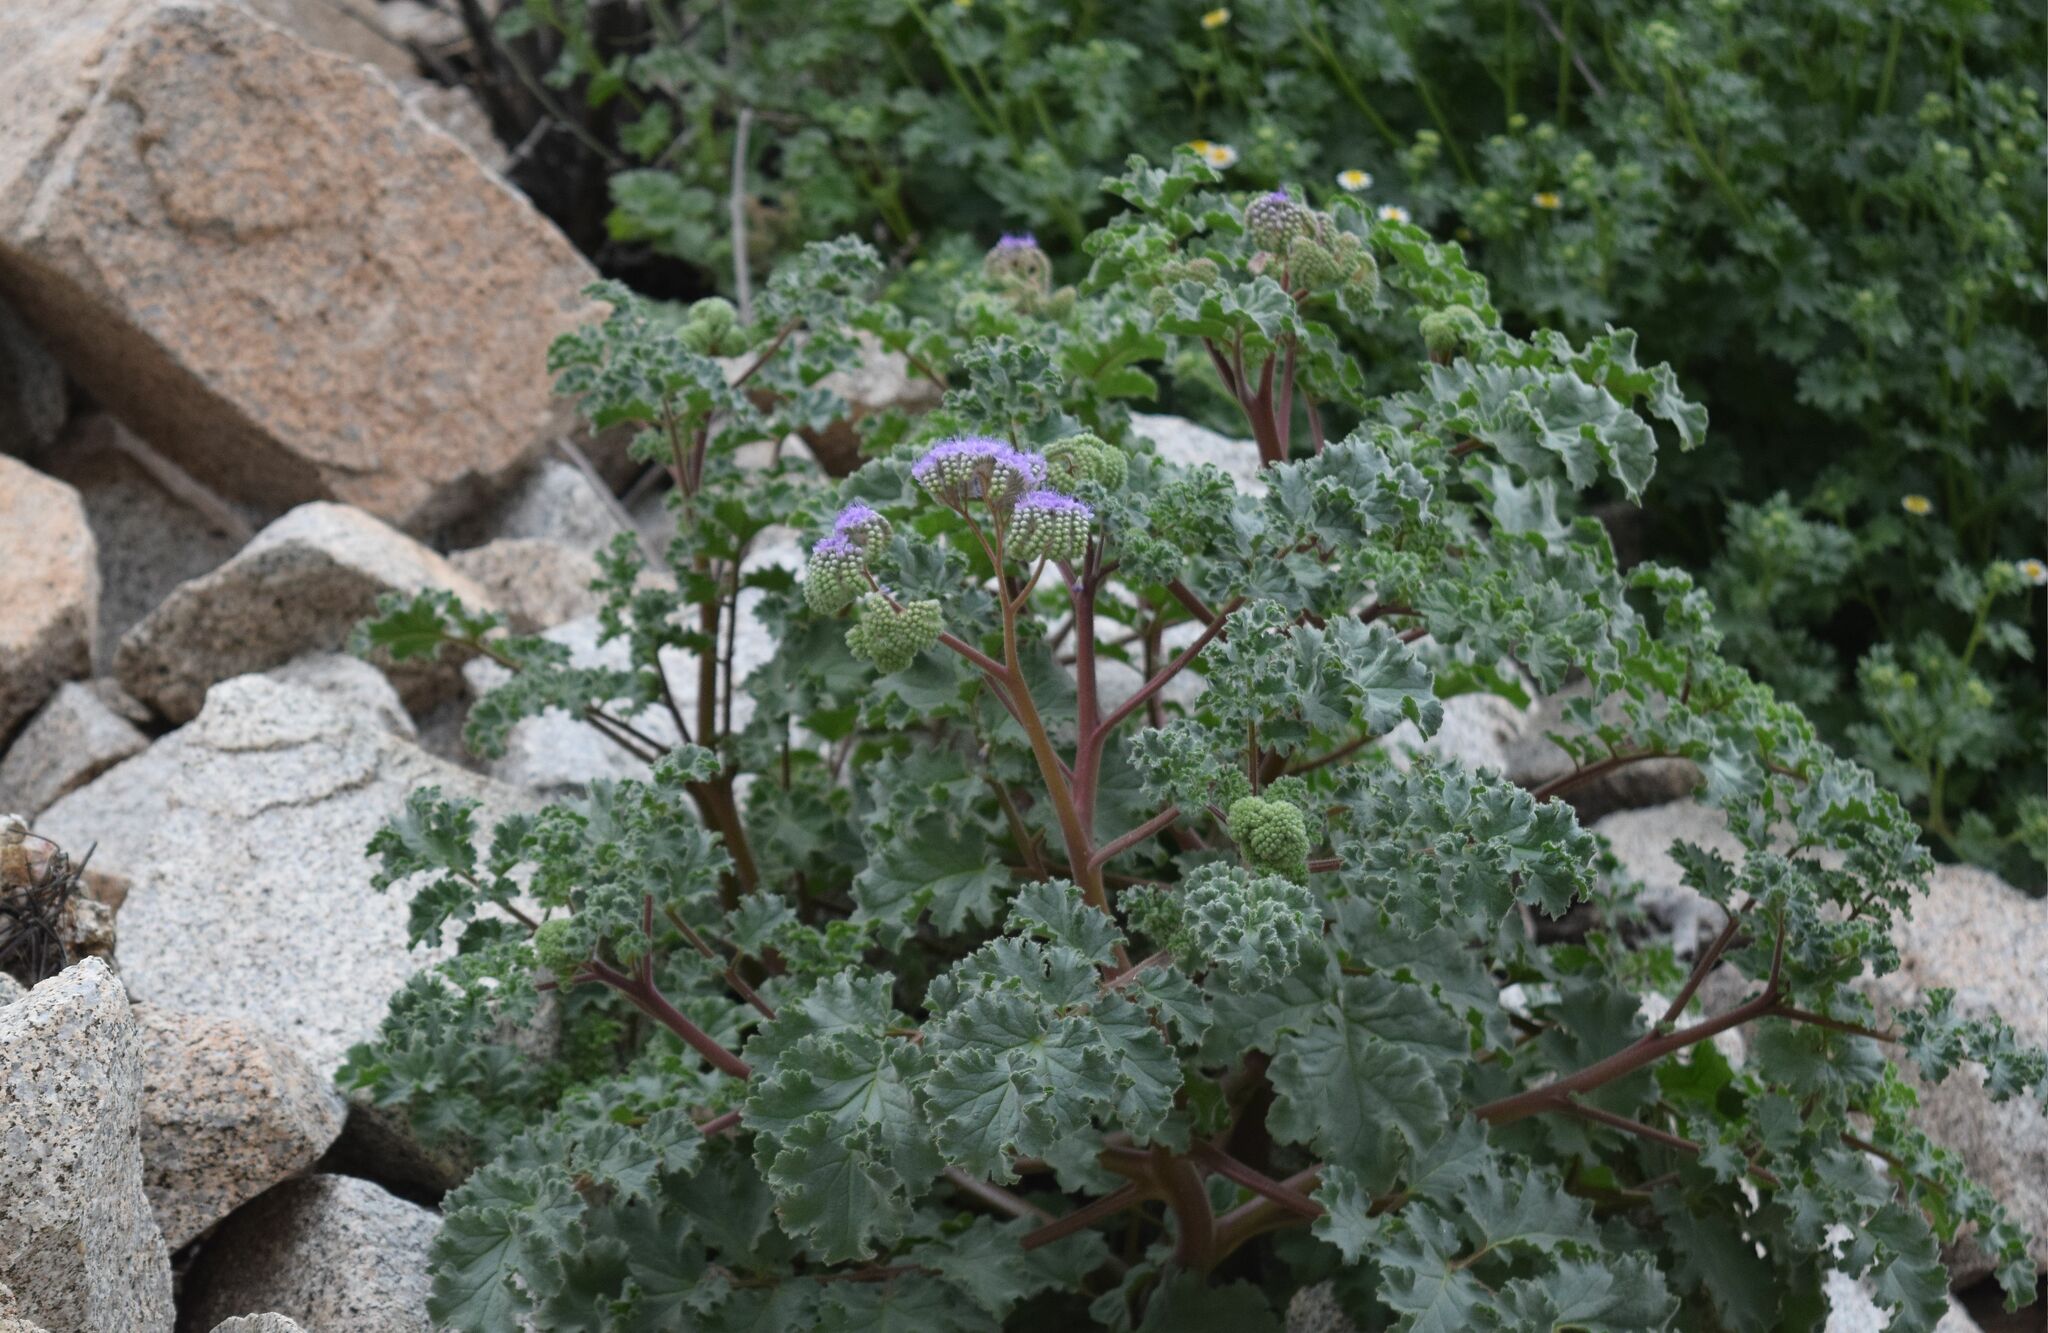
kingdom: Plantae
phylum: Tracheophyta
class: Magnoliopsida
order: Boraginales
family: Hydrophyllaceae
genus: Phacelia
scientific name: Phacelia pedicellata
